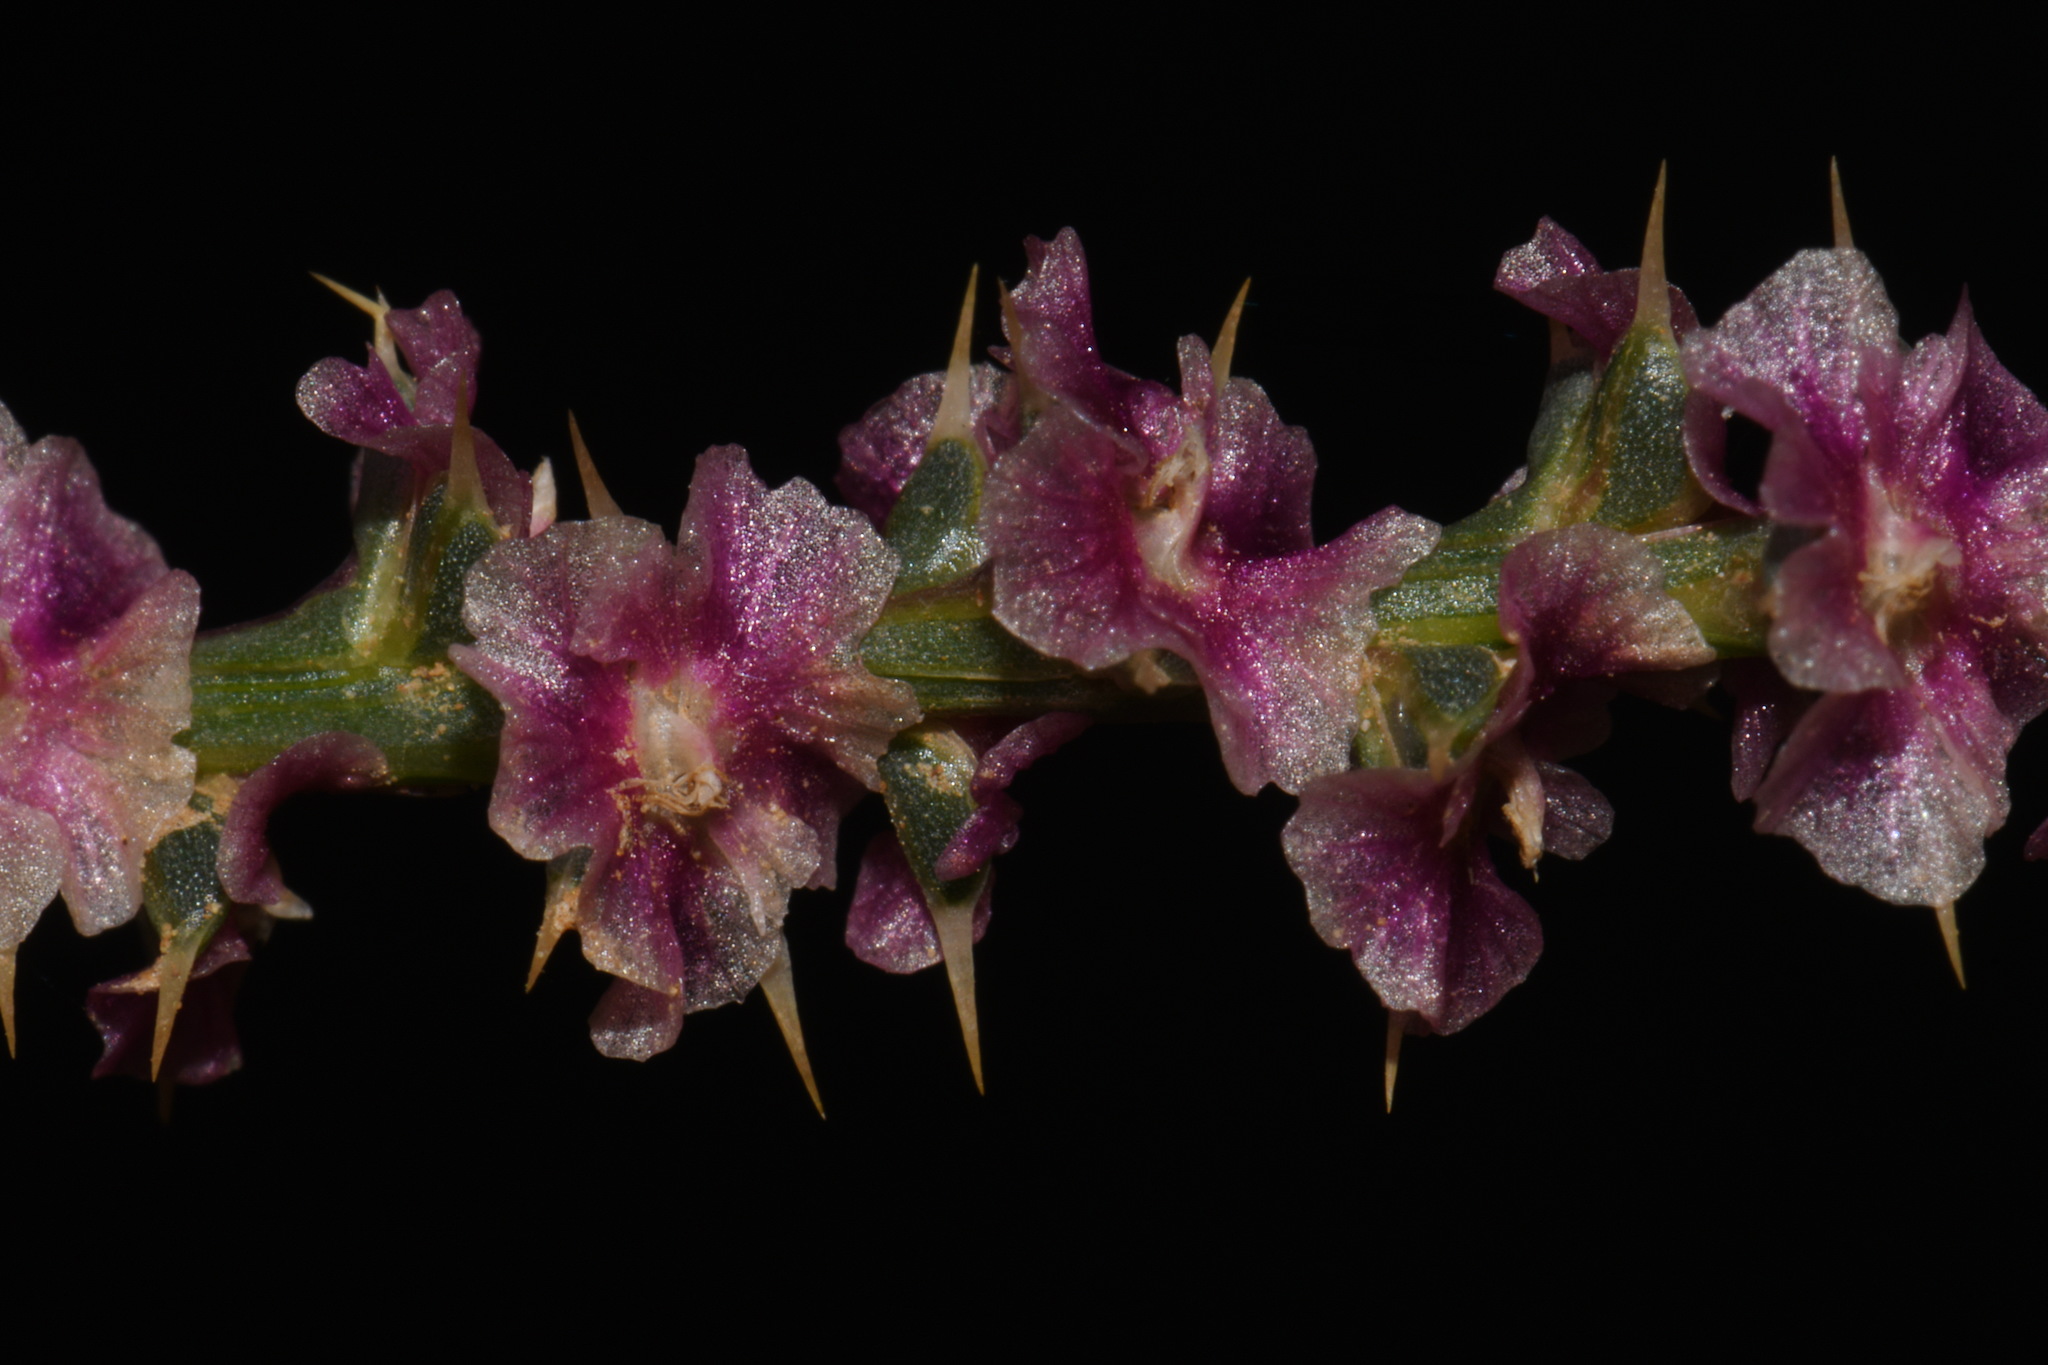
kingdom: Plantae
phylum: Tracheophyta
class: Magnoliopsida
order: Caryophyllales
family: Amaranthaceae
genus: Salsola
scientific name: Salsola tragus
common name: Prickly russian thistle
